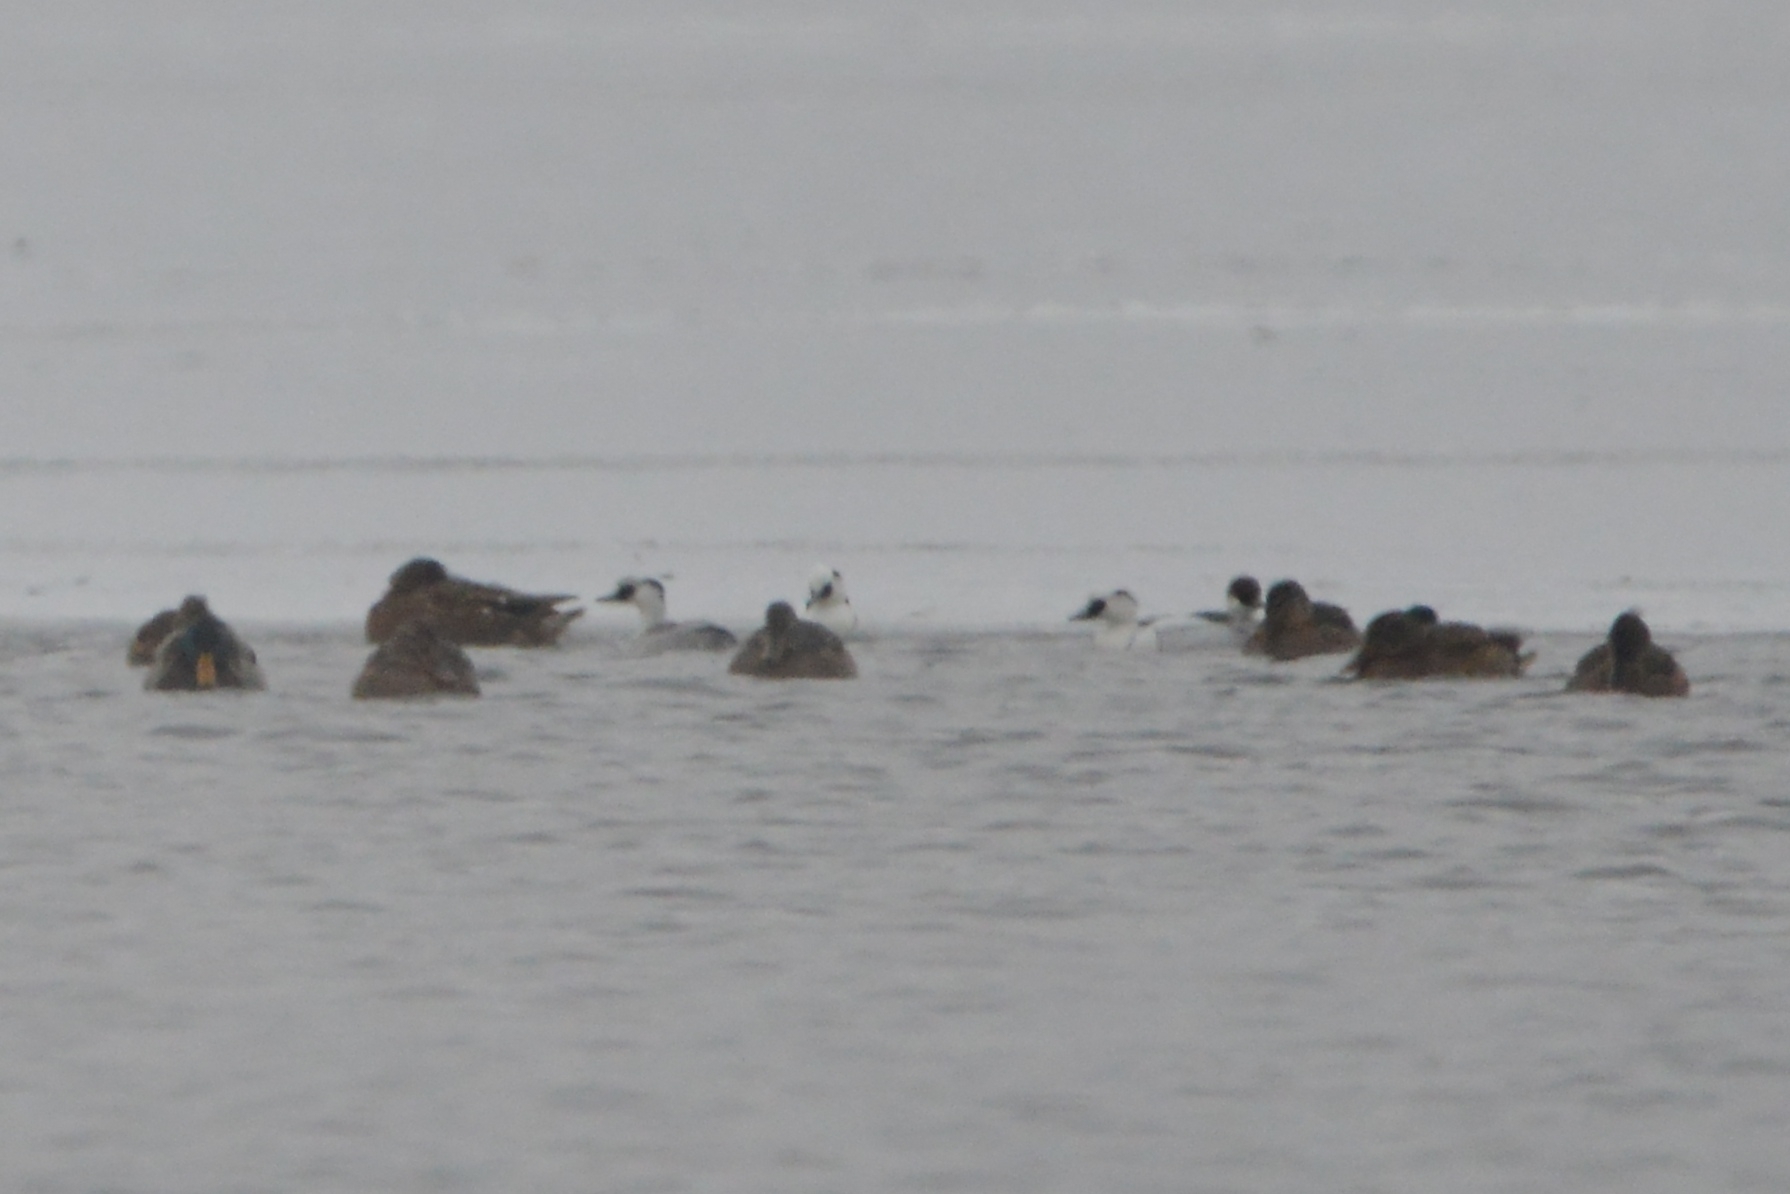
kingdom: Animalia
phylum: Chordata
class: Aves
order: Anseriformes
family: Anatidae
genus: Mergellus
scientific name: Mergellus albellus
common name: Smew
